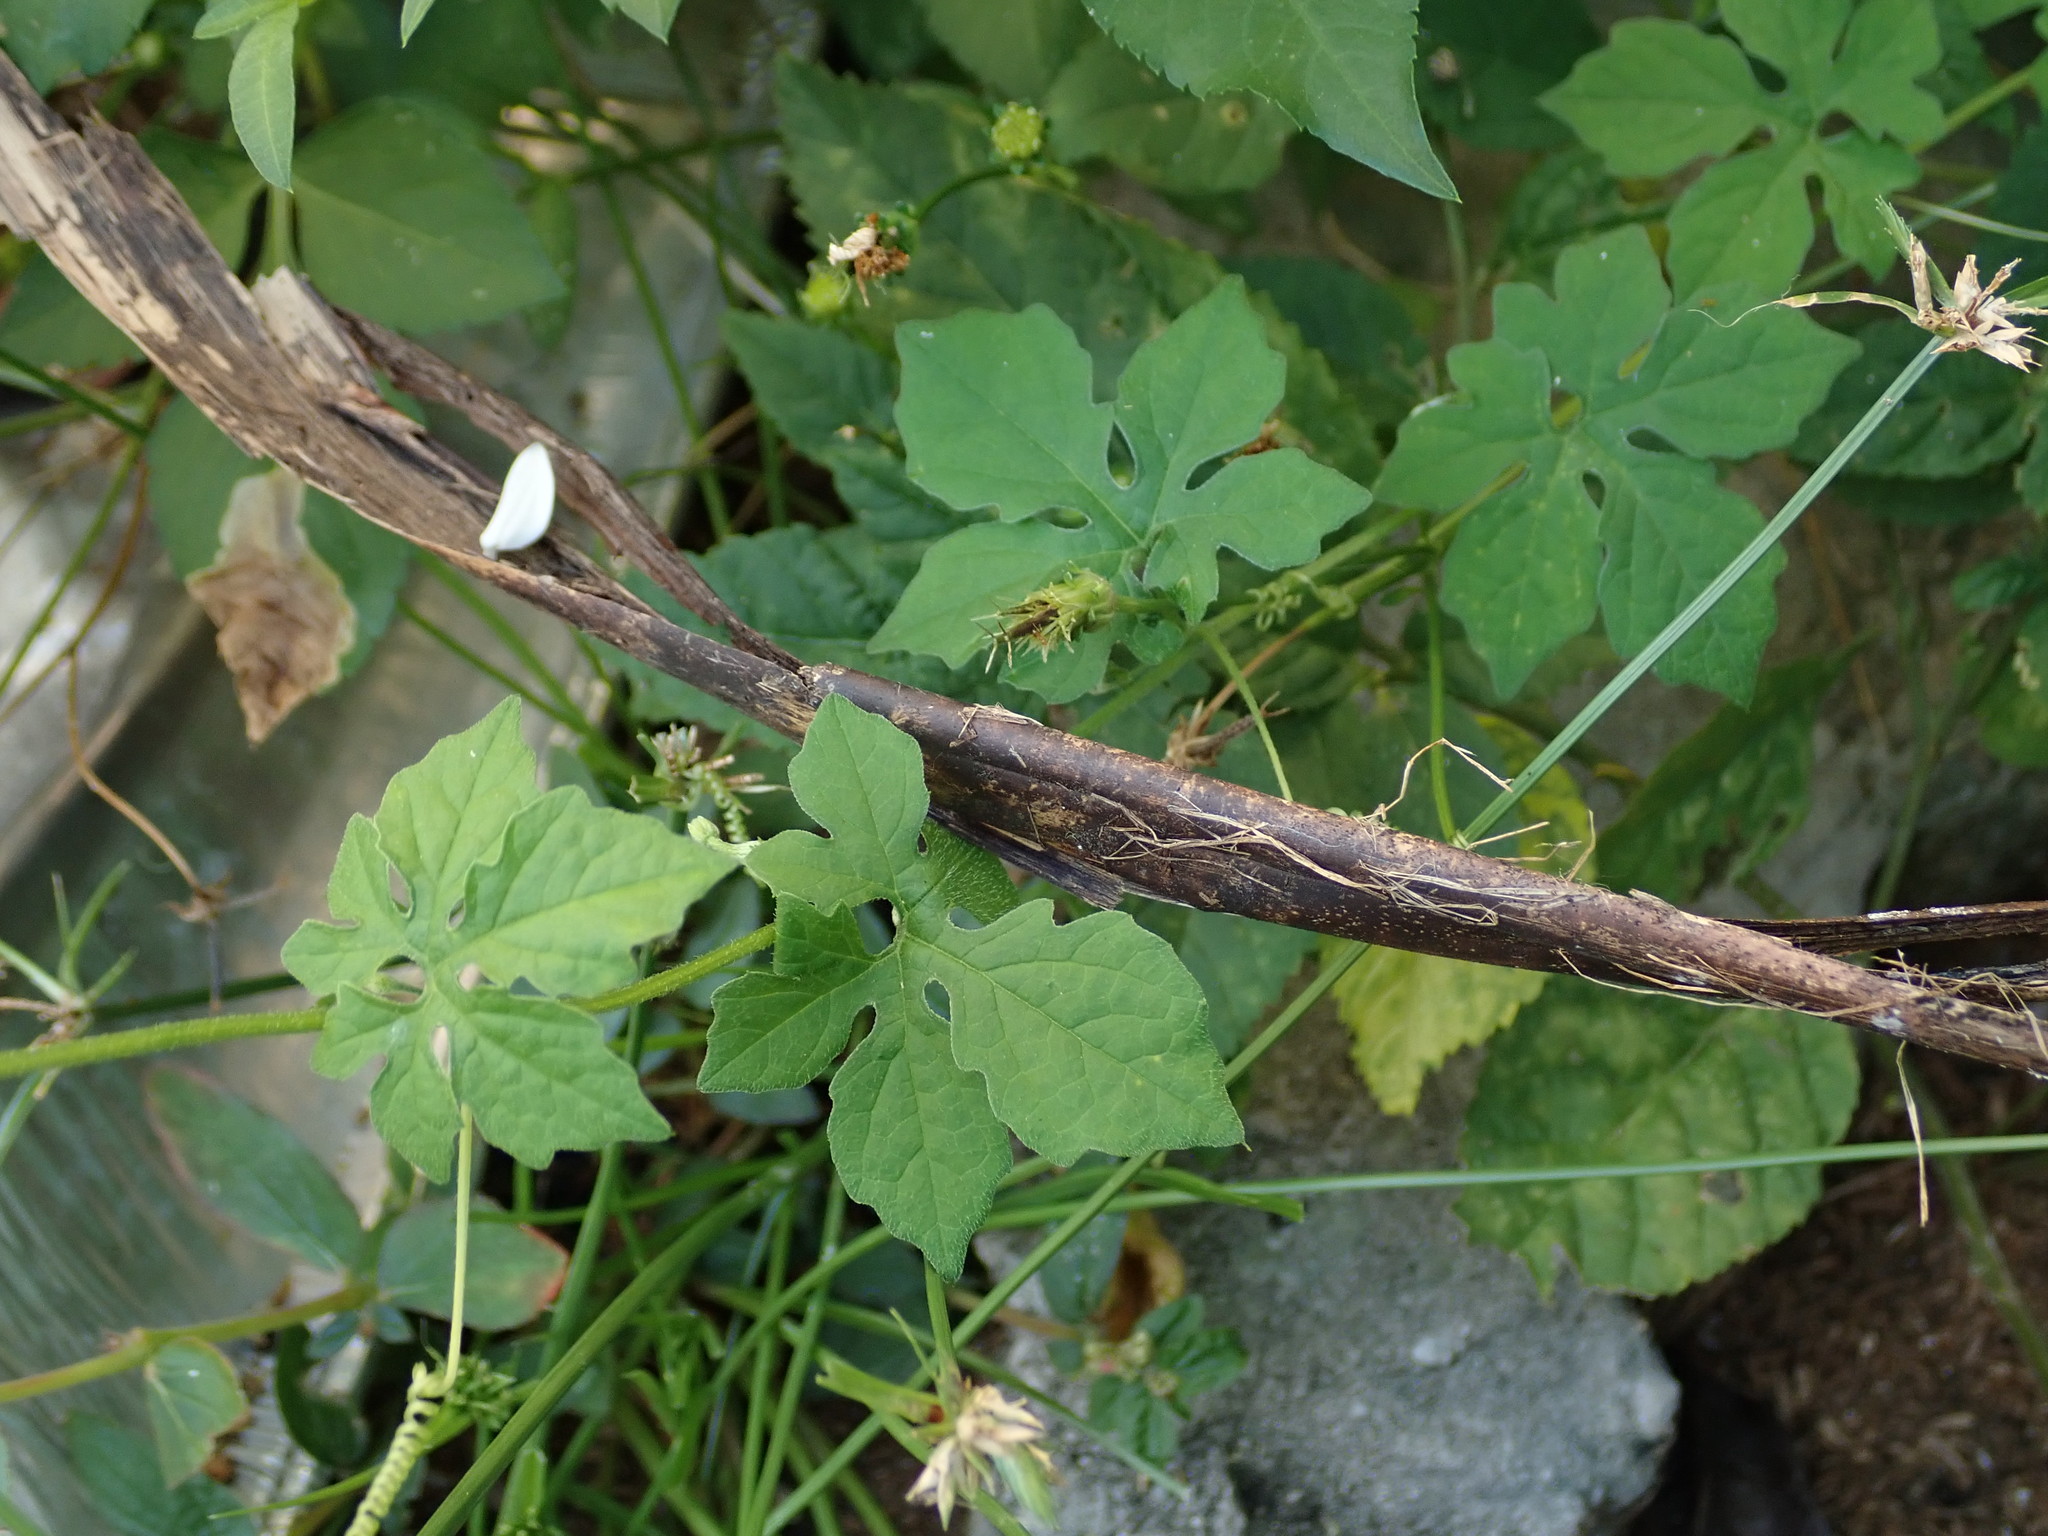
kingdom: Plantae
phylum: Tracheophyta
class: Magnoliopsida
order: Cucurbitales
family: Cucurbitaceae
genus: Momordica
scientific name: Momordica charantia
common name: Balsampear
